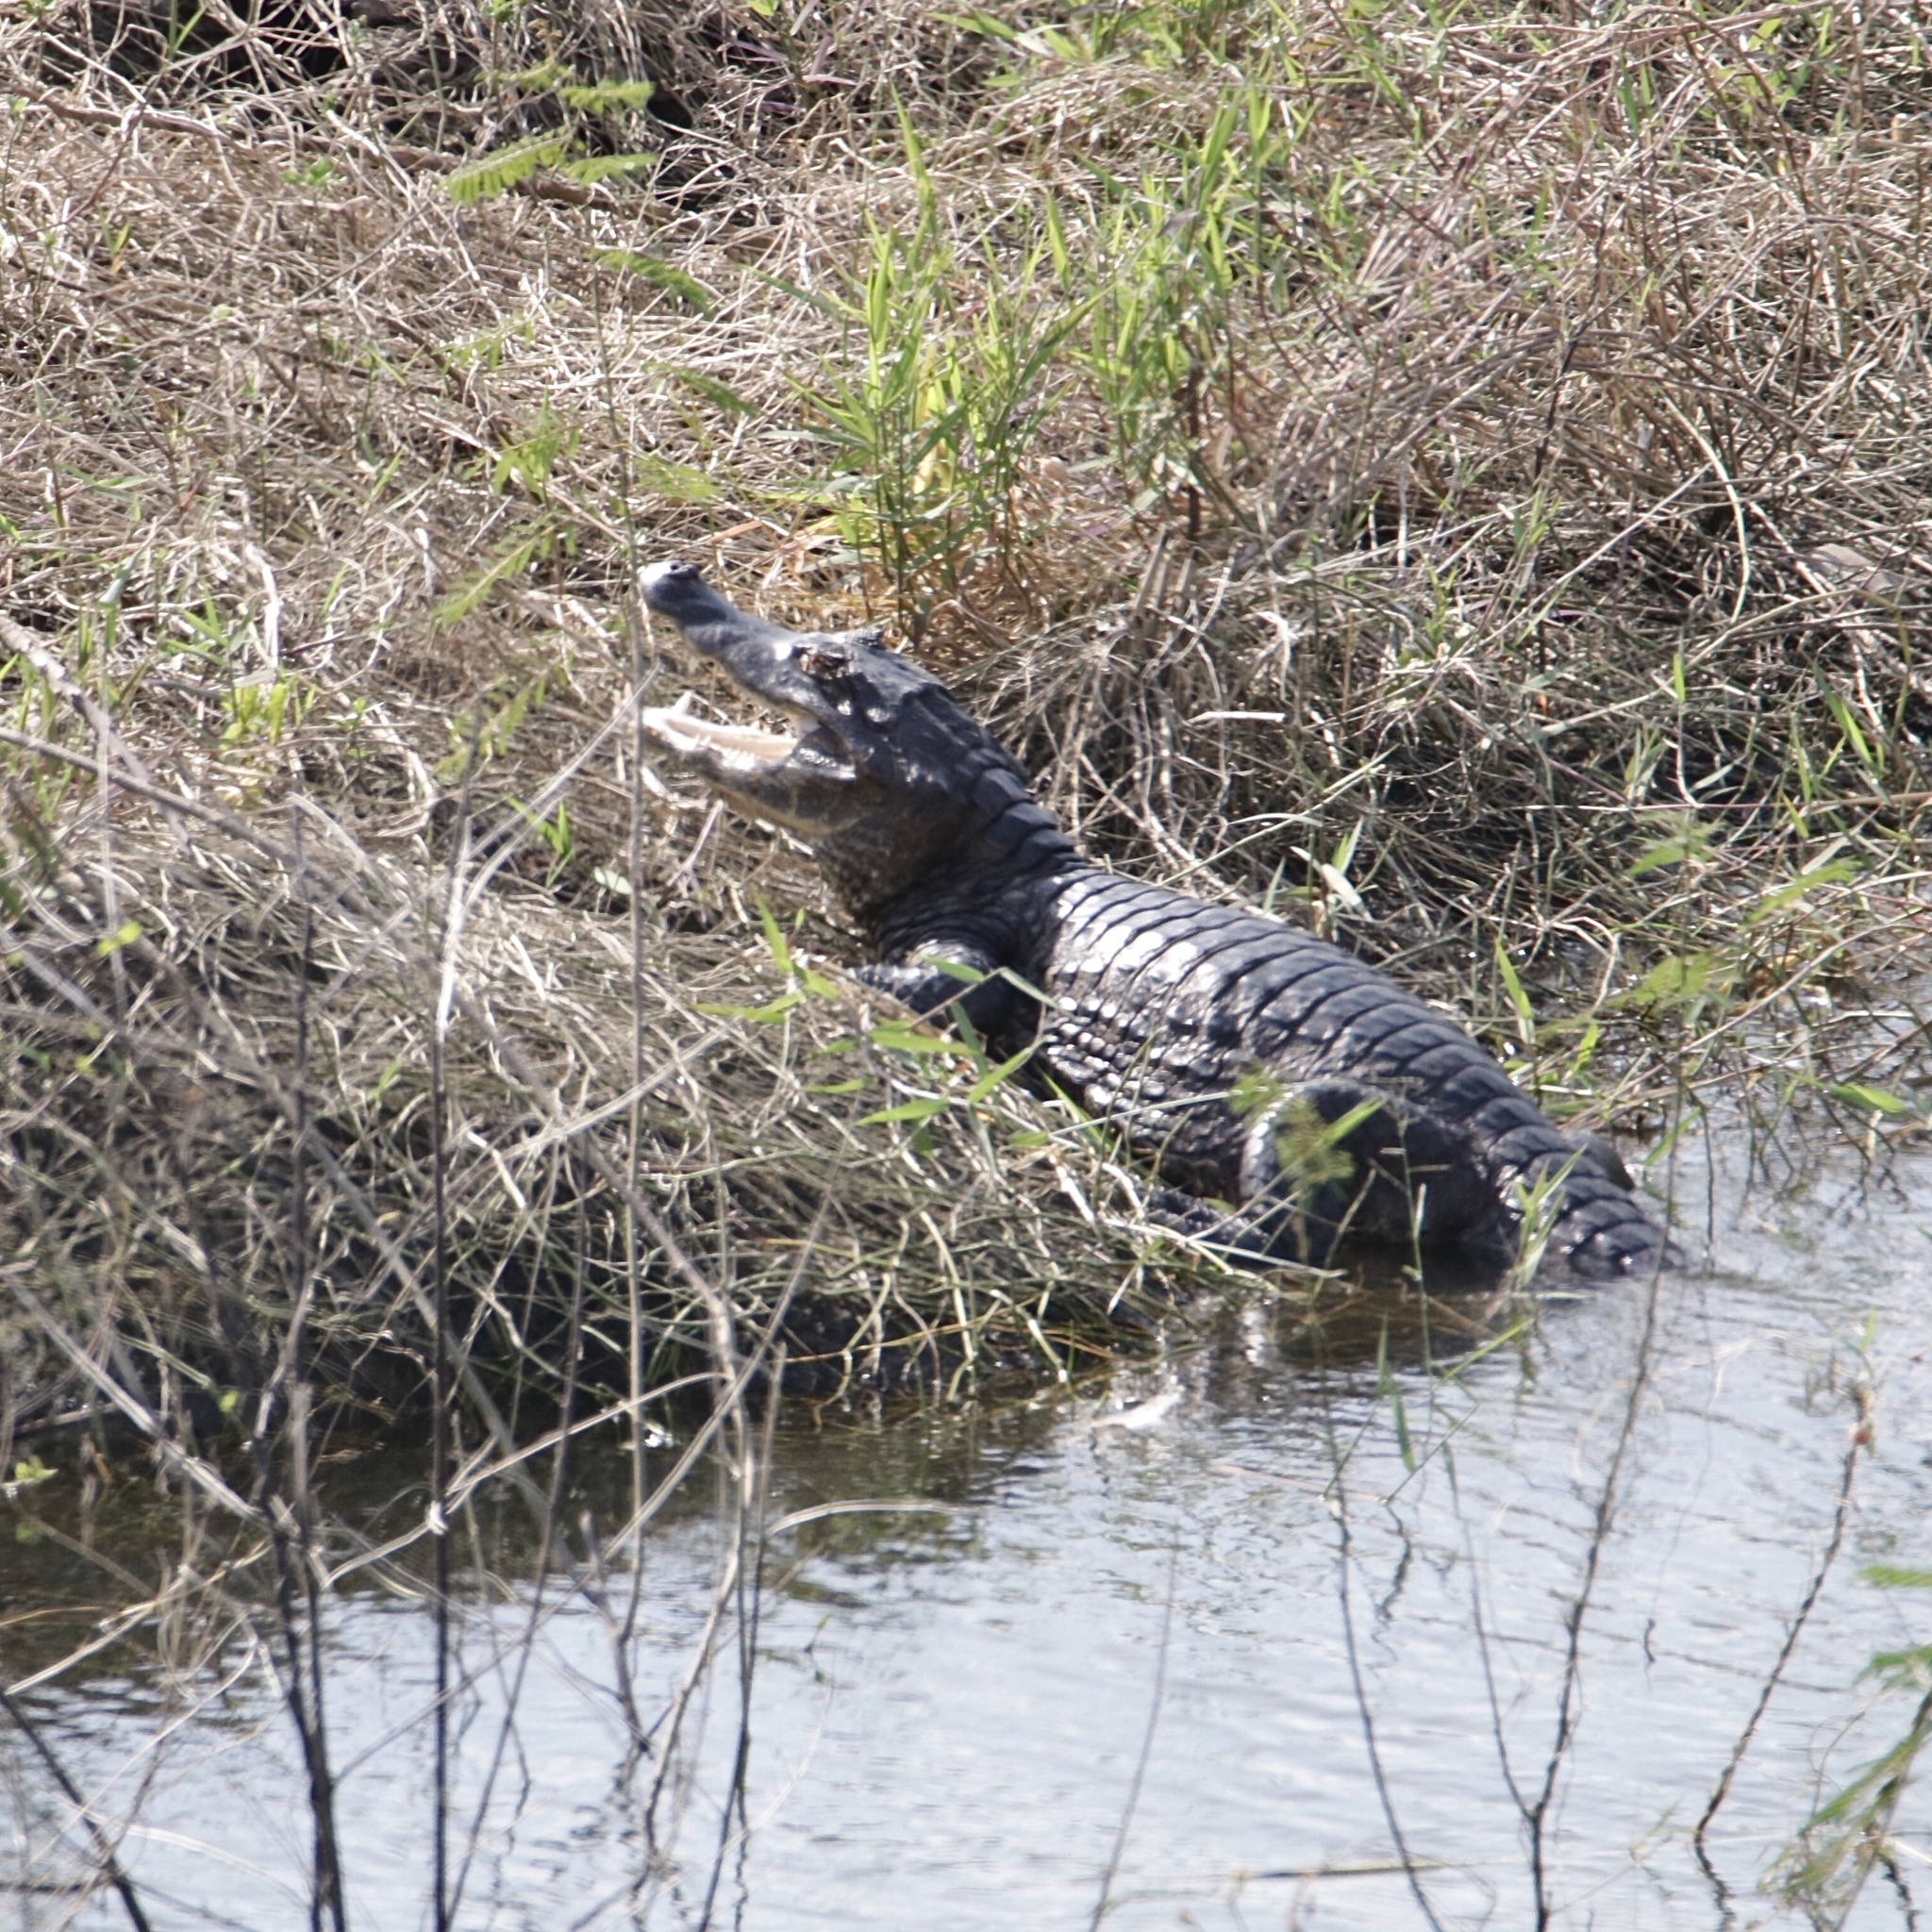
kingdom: Animalia
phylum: Chordata
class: Crocodylia
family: Alligatoridae
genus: Caiman
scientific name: Caiman crocodilus
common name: Common caiman
